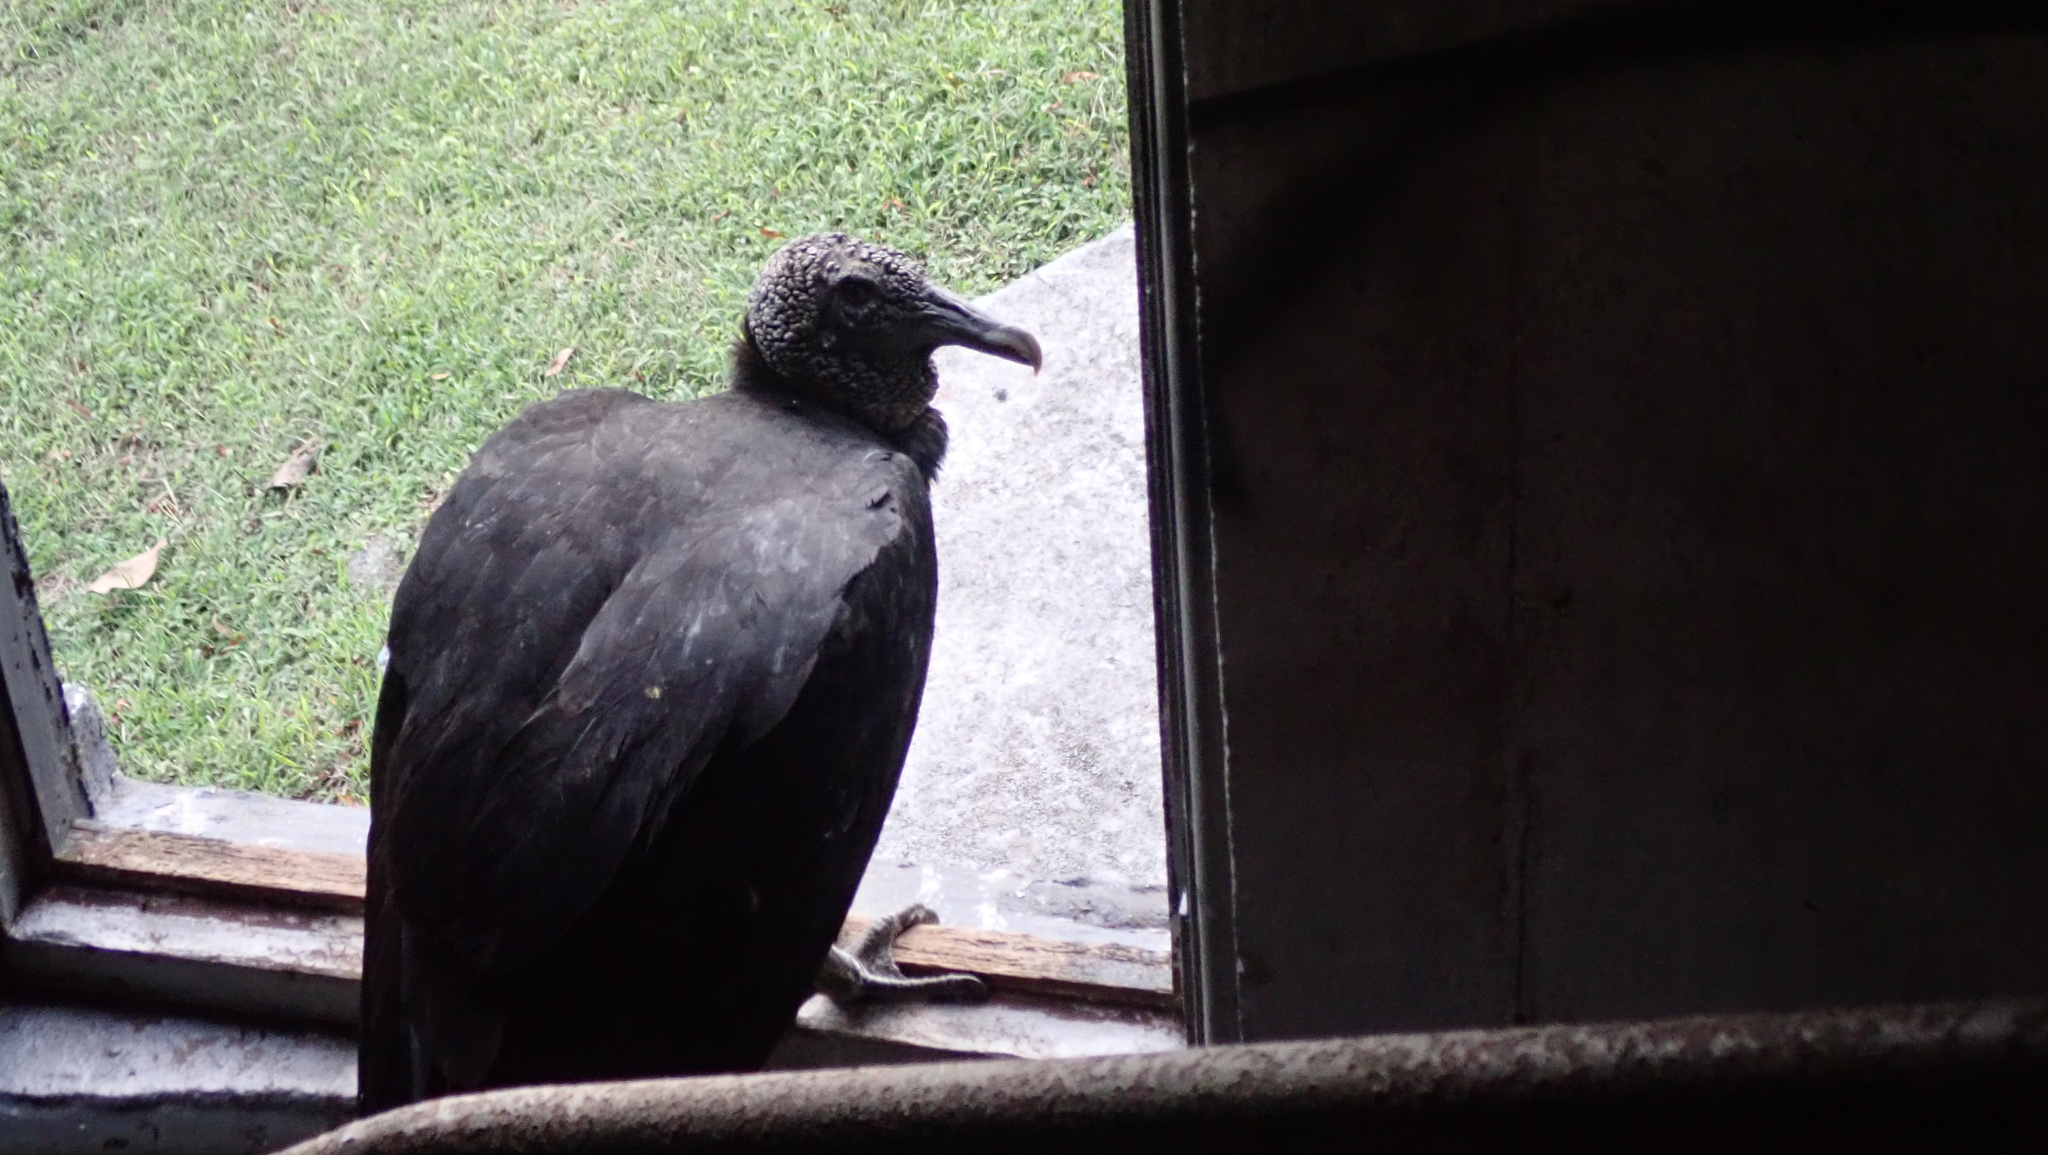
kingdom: Animalia
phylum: Chordata
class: Aves
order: Accipitriformes
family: Cathartidae
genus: Coragyps
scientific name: Coragyps atratus
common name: Black vulture
